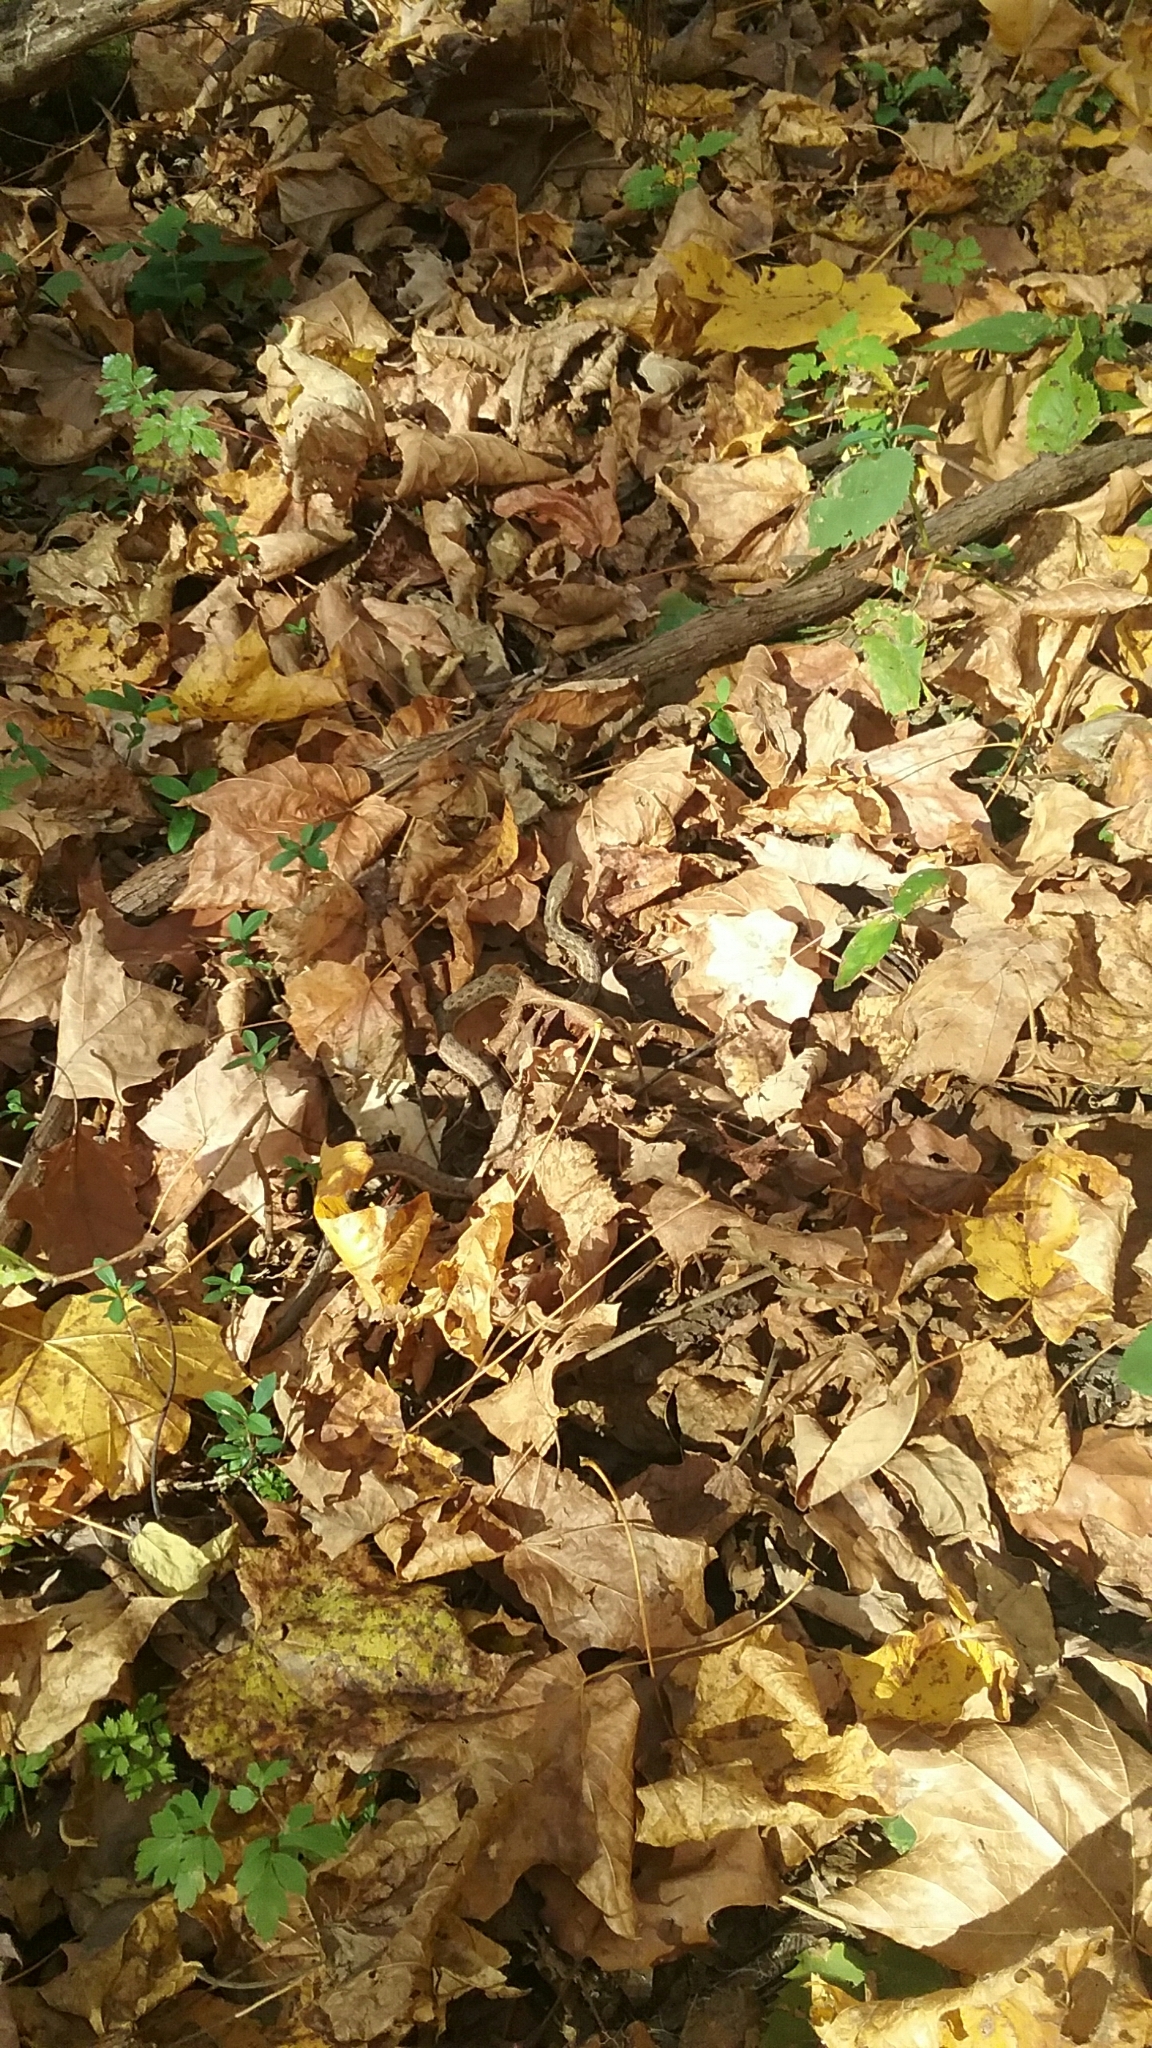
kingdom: Animalia
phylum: Chordata
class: Squamata
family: Colubridae
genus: Thamnophis
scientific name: Thamnophis sirtalis
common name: Common garter snake
